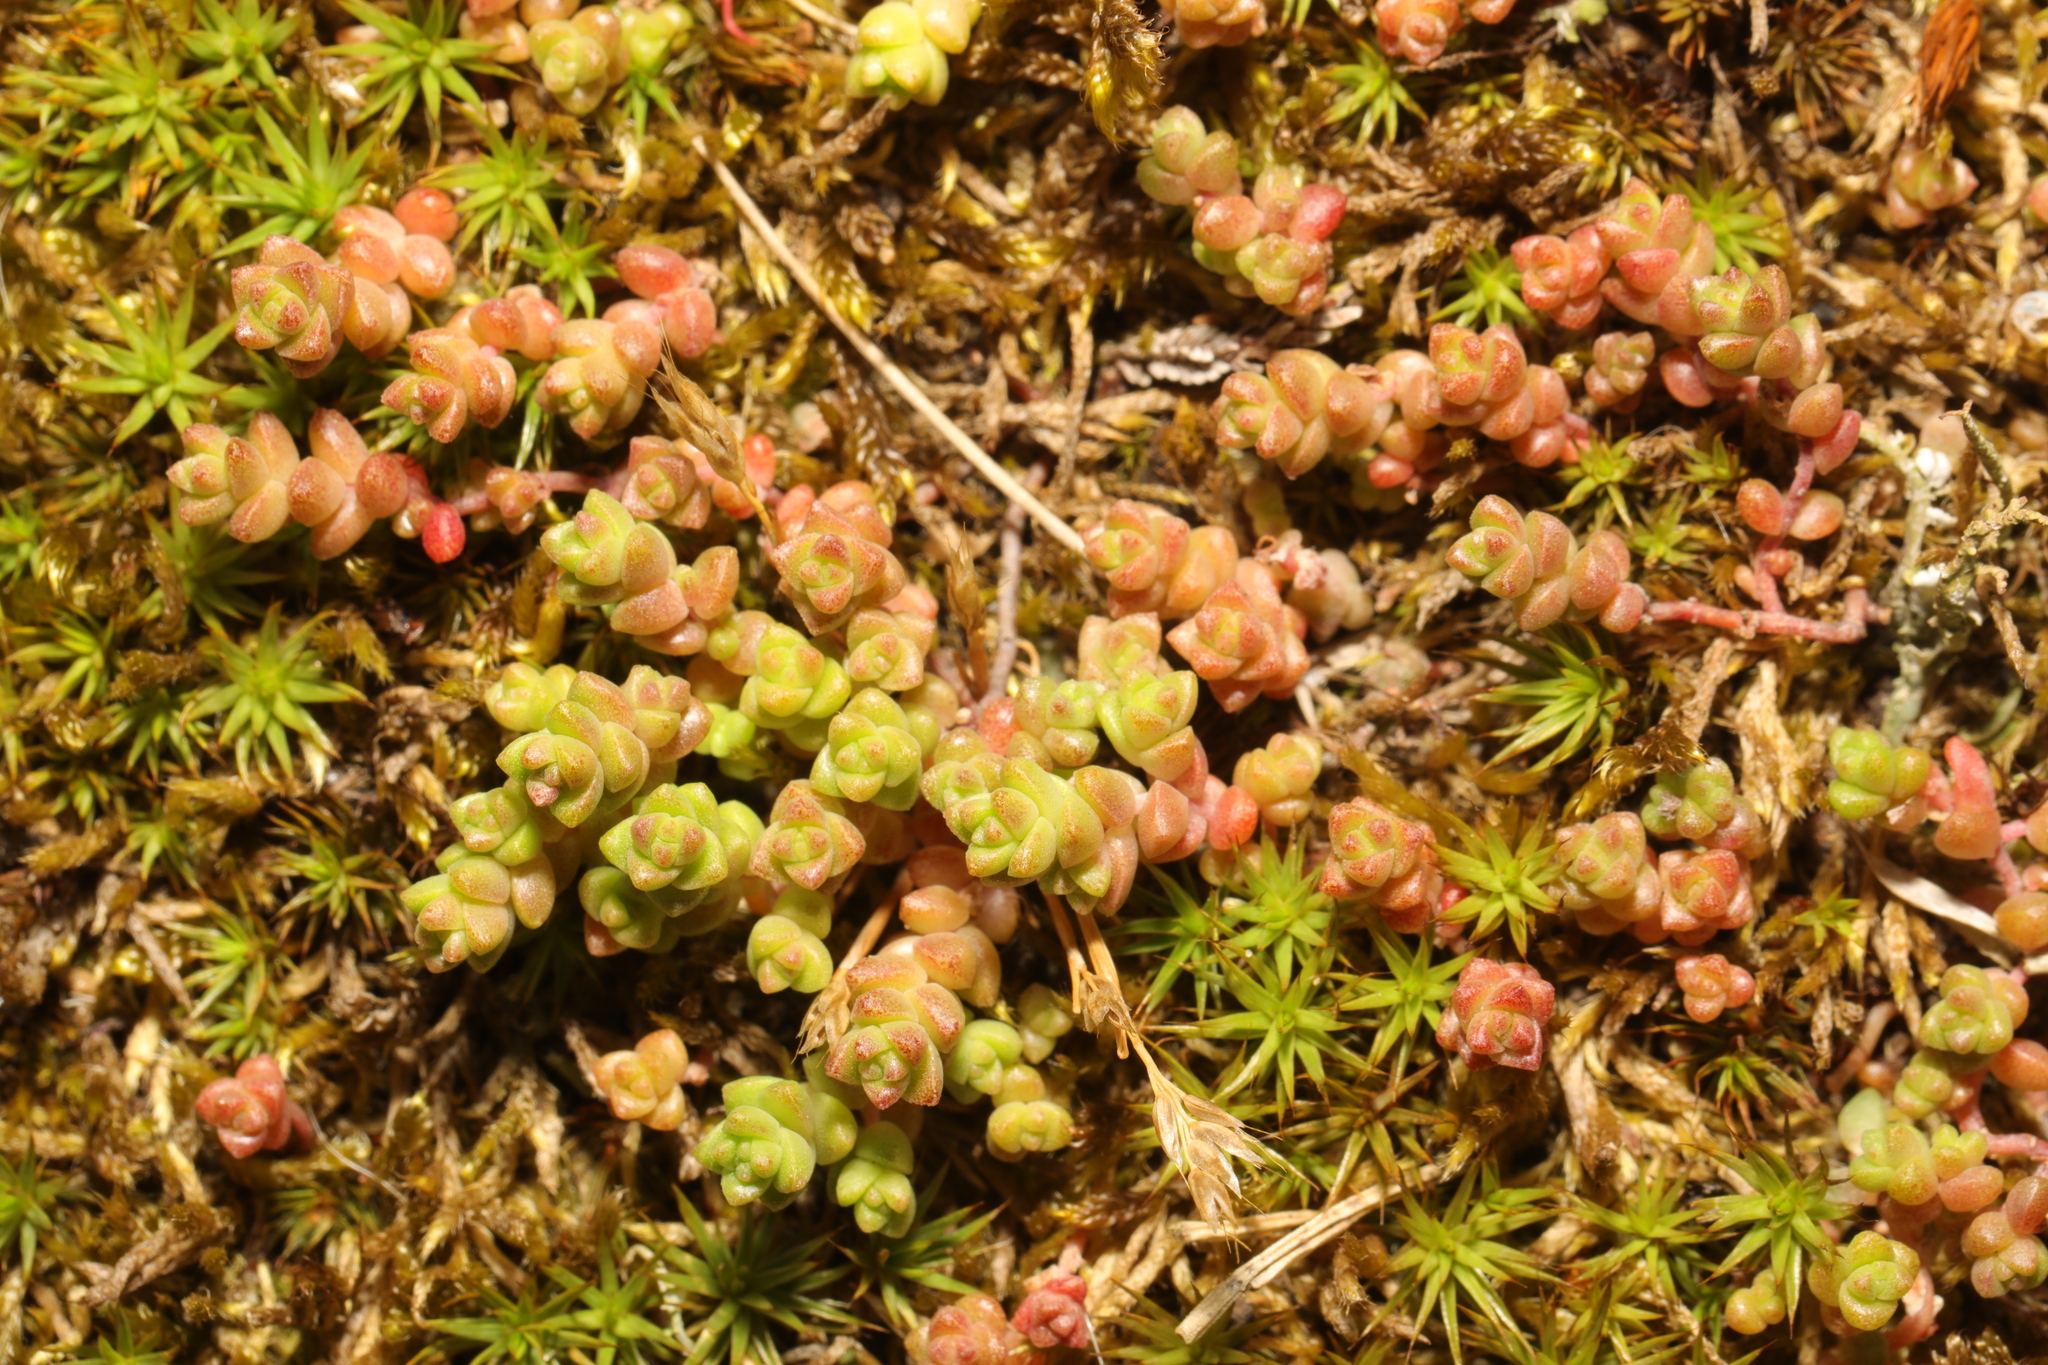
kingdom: Plantae
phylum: Tracheophyta
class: Magnoliopsida
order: Saxifragales
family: Crassulaceae
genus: Sedum
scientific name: Sedum anglicum
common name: English stonecrop
